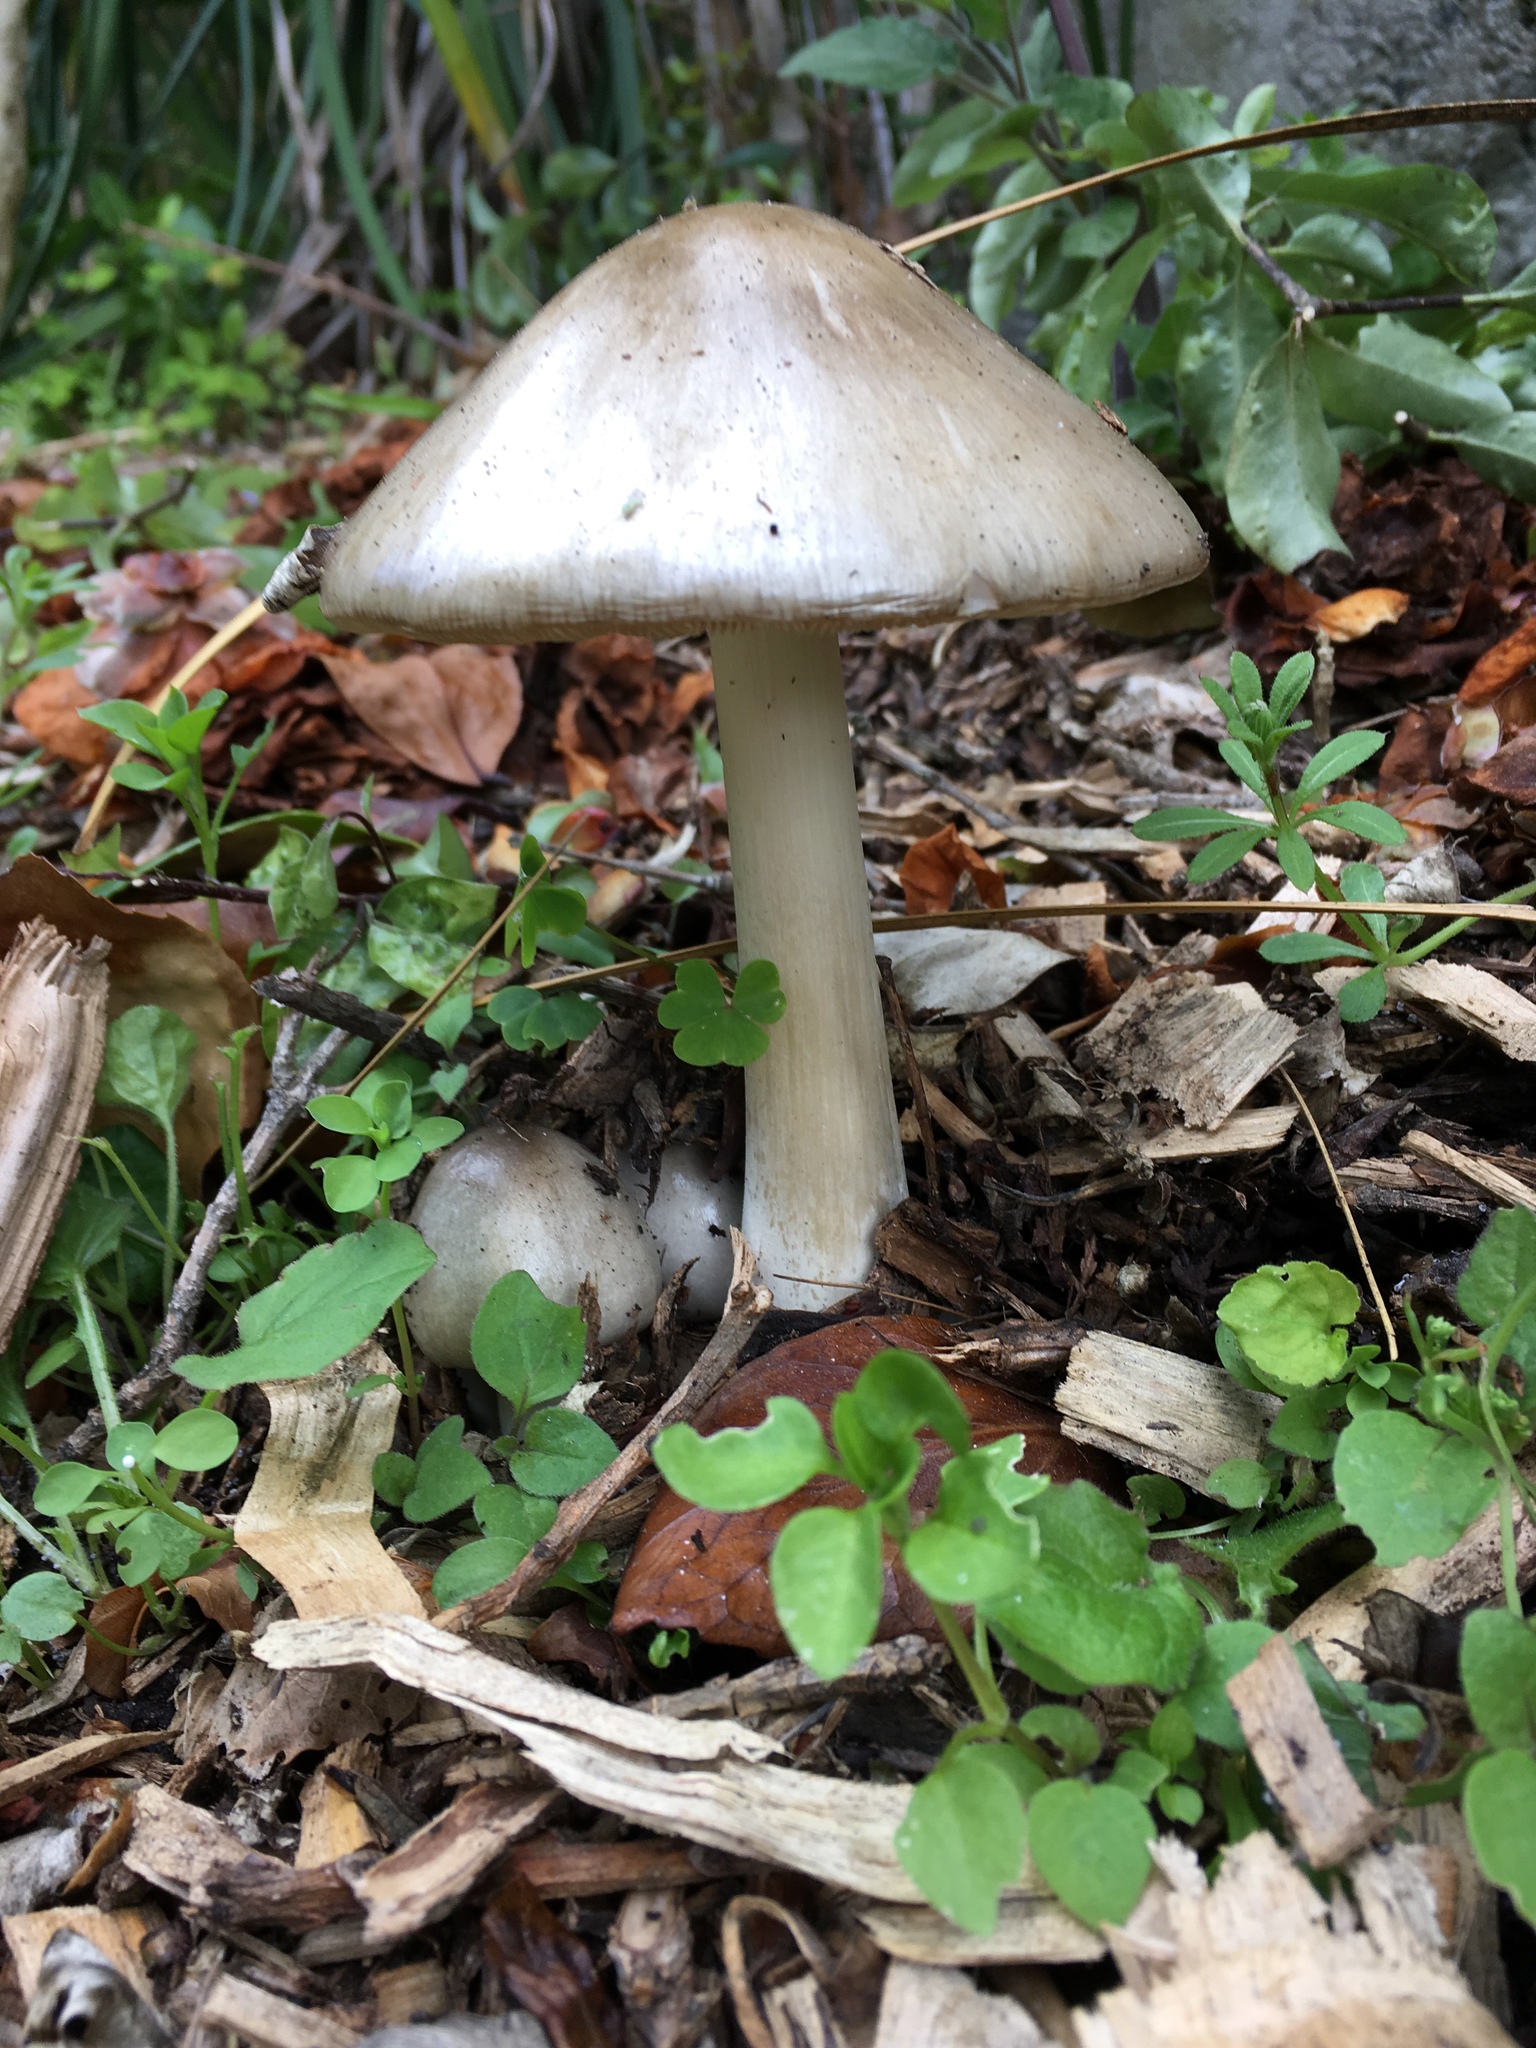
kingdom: Fungi
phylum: Basidiomycota
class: Agaricomycetes
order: Agaricales
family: Pluteaceae
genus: Volvopluteus
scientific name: Volvopluteus gloiocephalus
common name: Stubble rosegill
